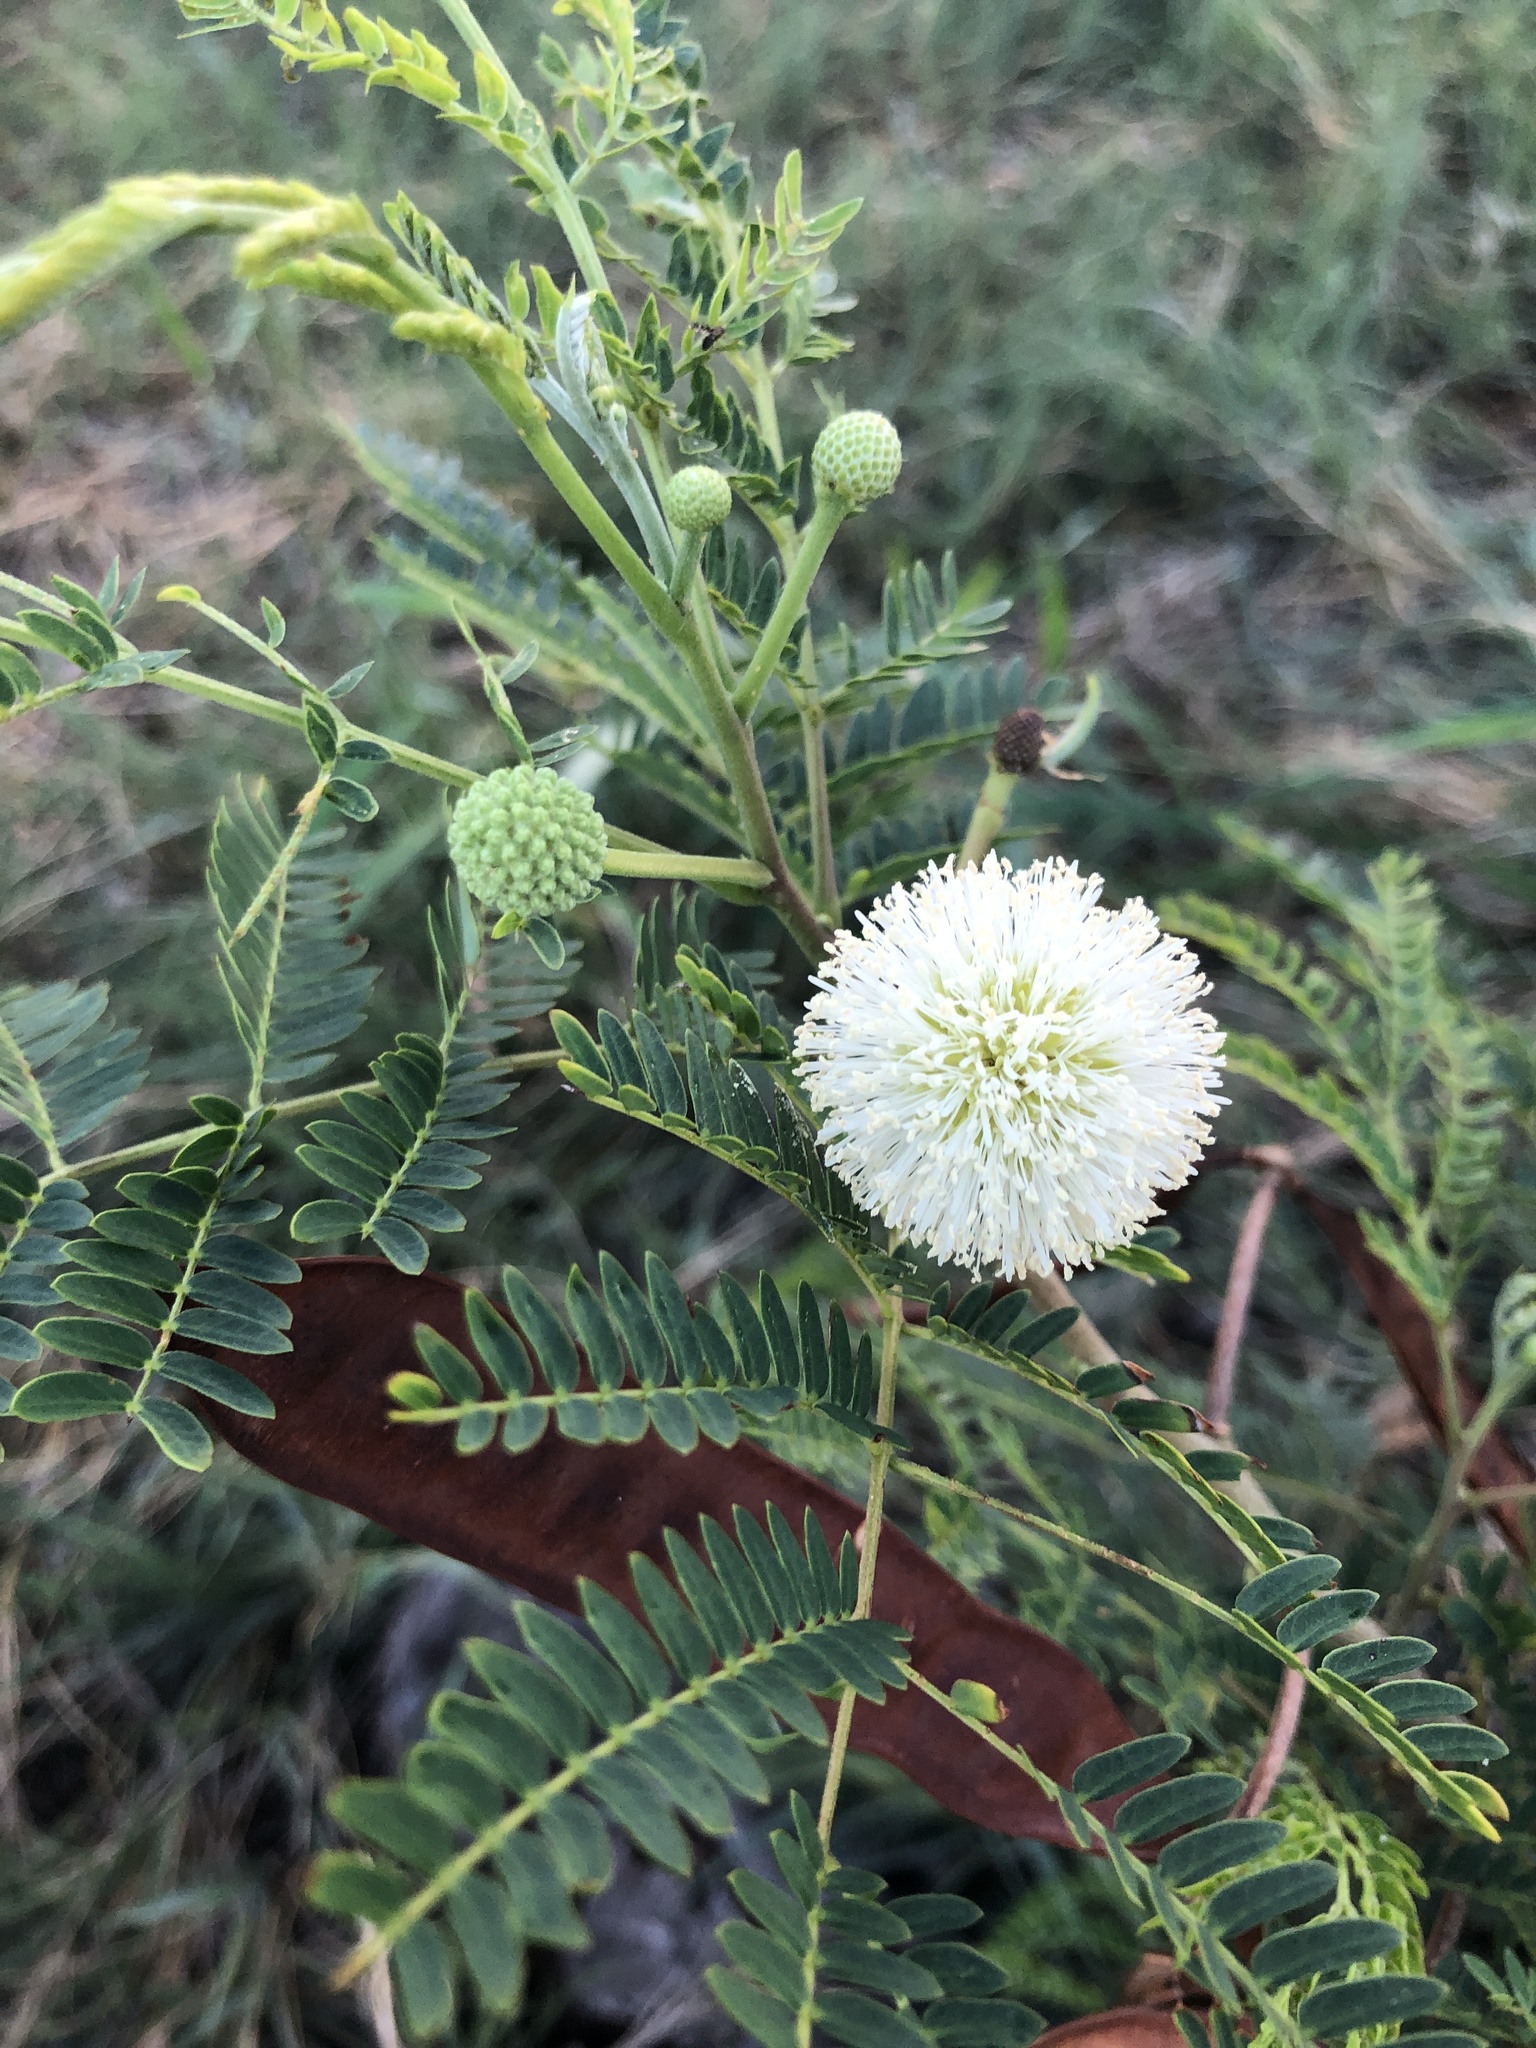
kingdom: Plantae
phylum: Tracheophyta
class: Magnoliopsida
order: Fabales
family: Fabaceae
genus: Leucaena
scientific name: Leucaena leucocephala
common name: White leadtree
